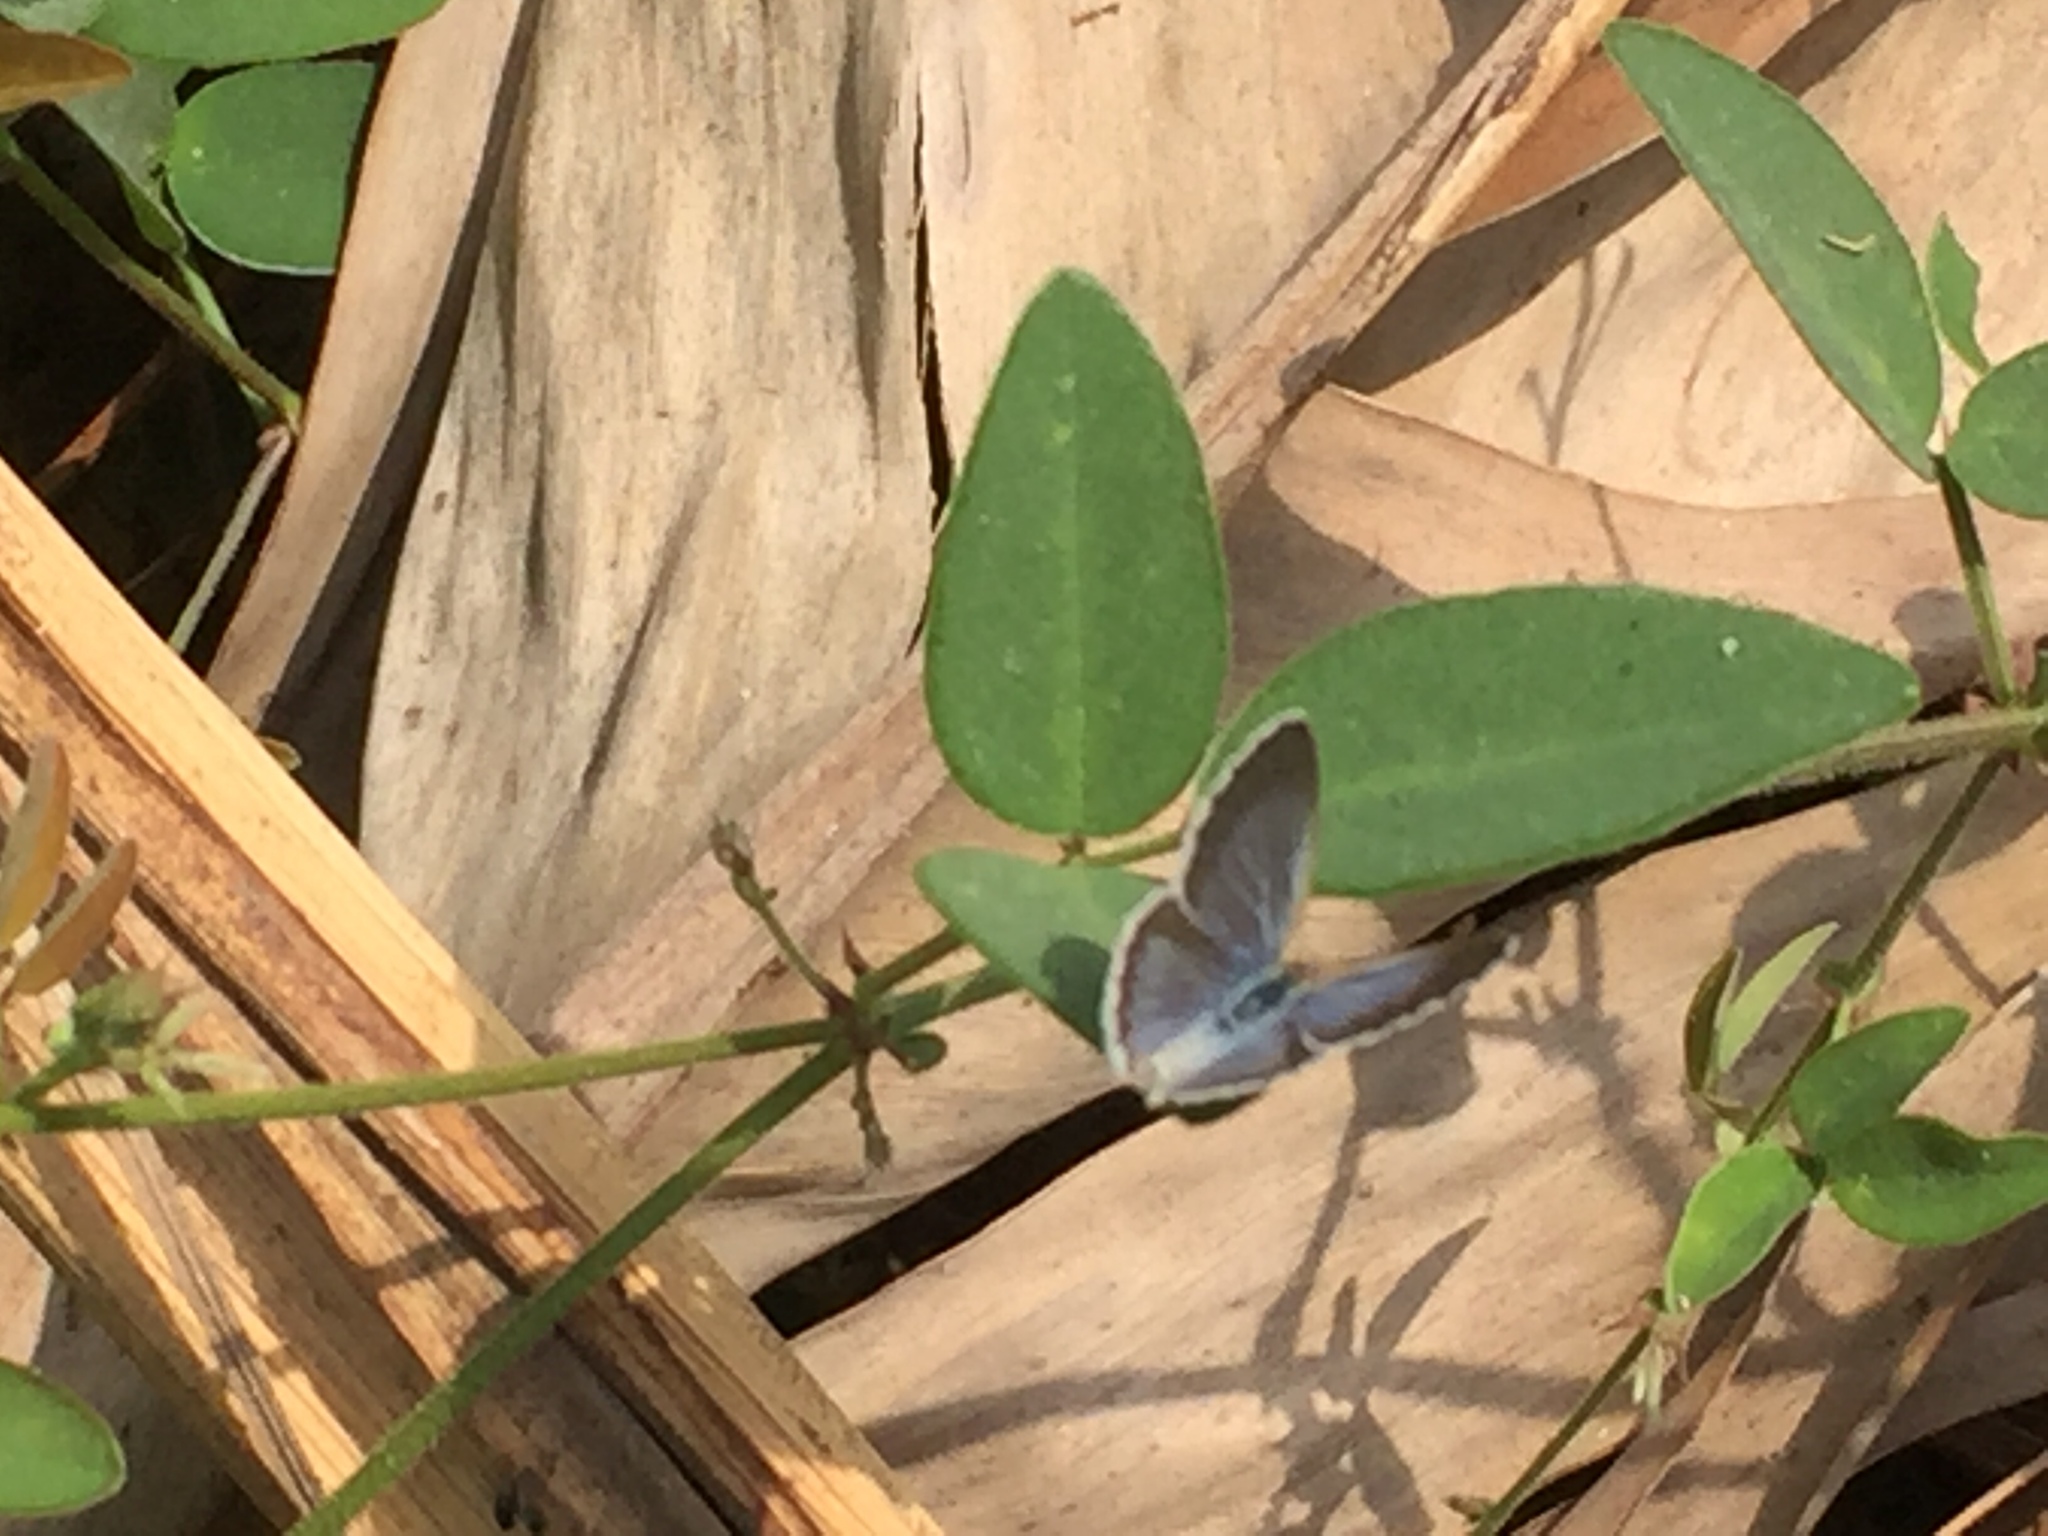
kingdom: Animalia
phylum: Arthropoda
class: Insecta
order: Lepidoptera
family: Lycaenidae
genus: Zizina
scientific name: Zizina otis
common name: Lesser grass blue
